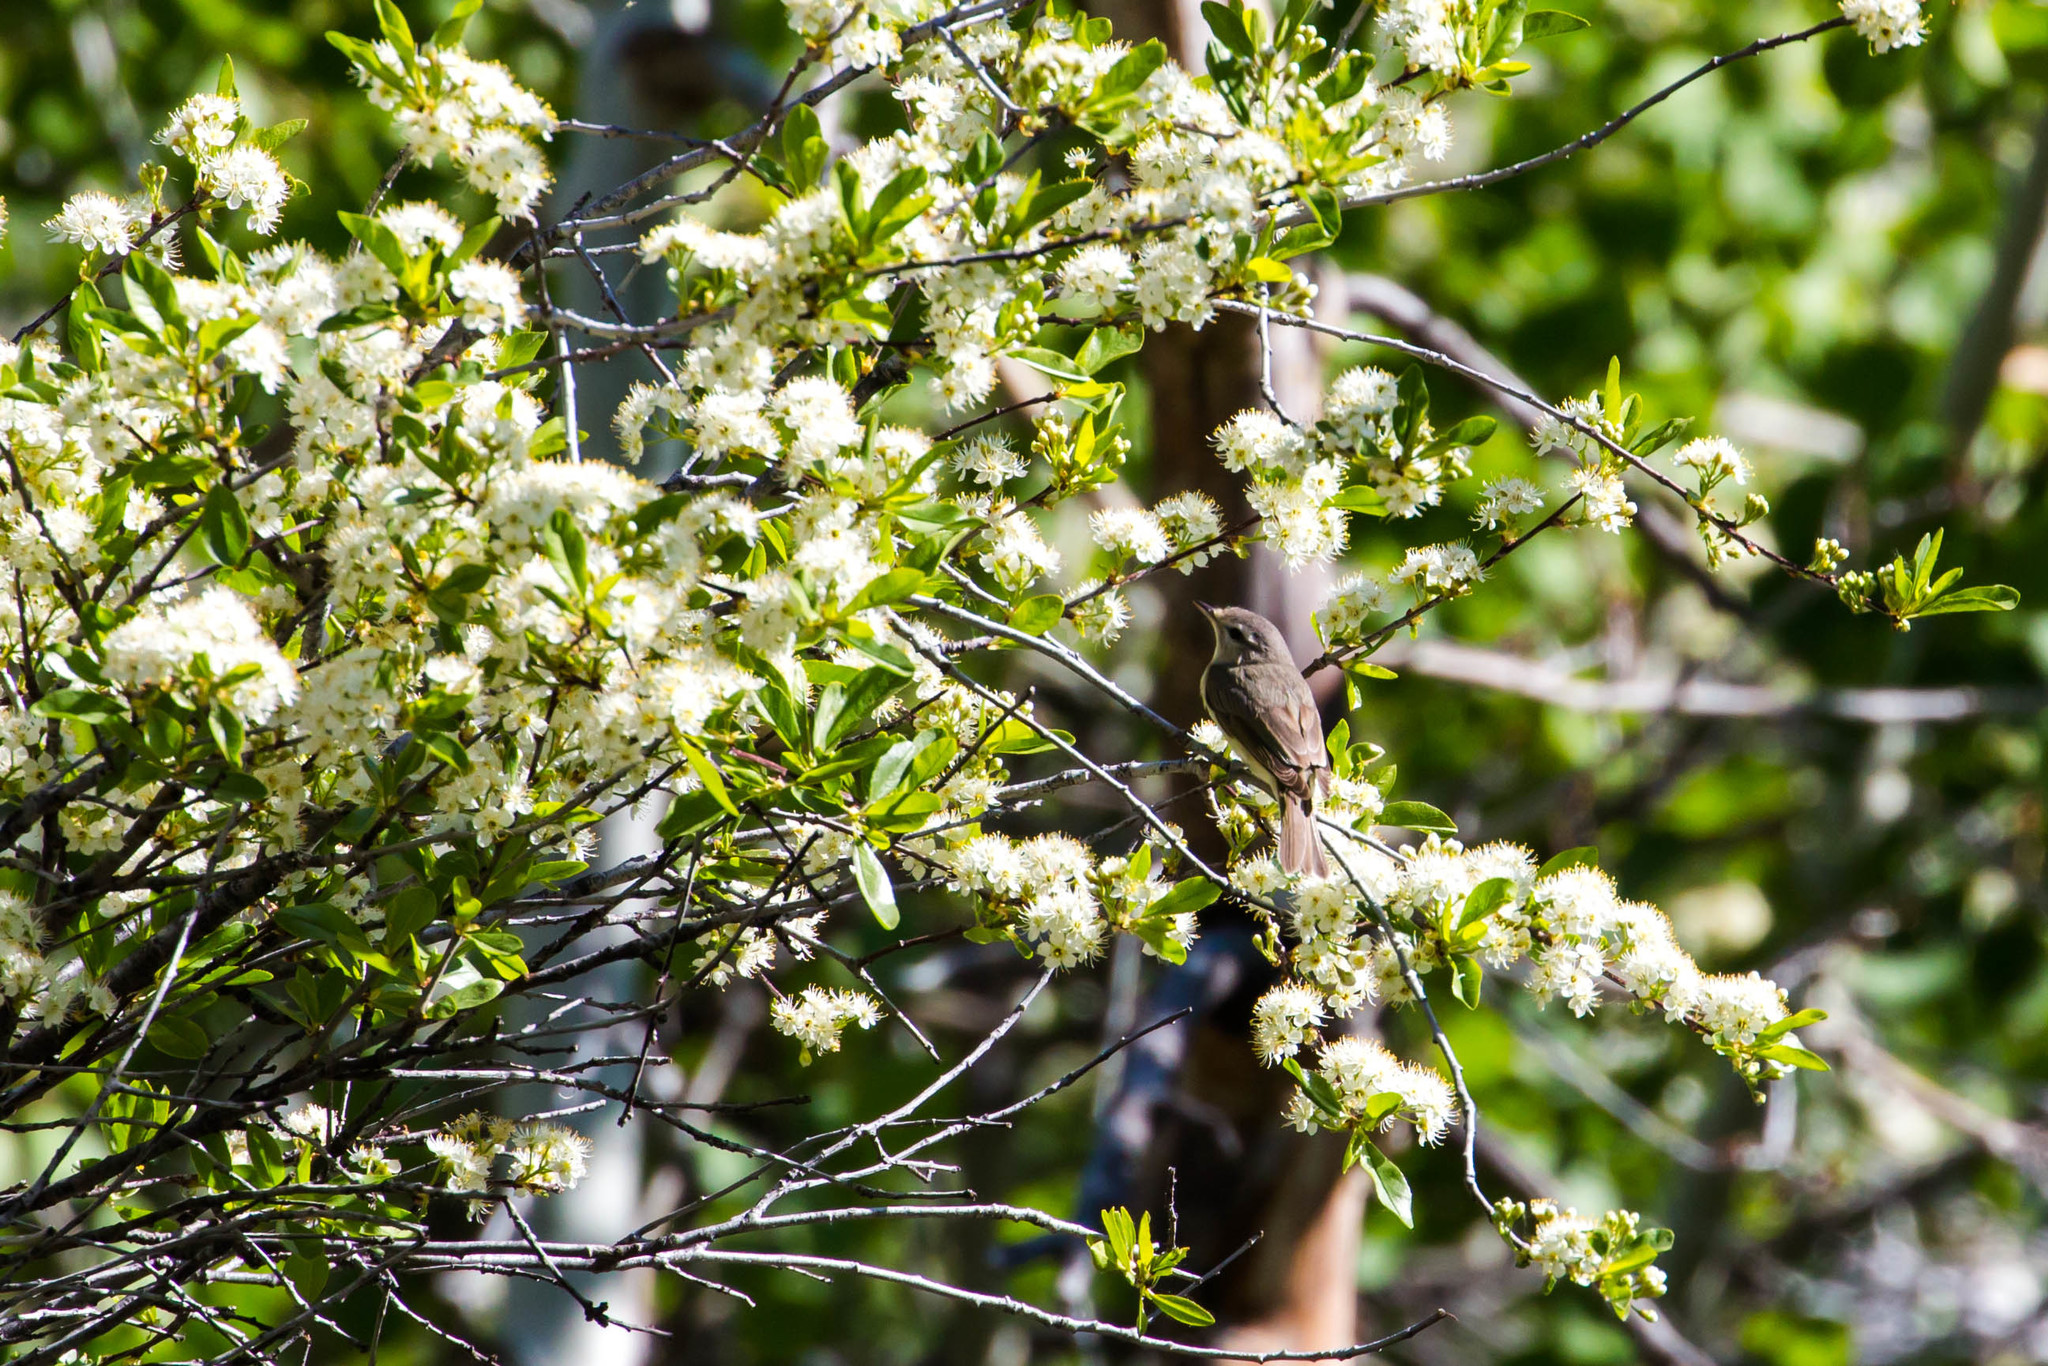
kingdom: Animalia
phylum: Chordata
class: Aves
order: Passeriformes
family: Vireonidae
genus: Vireo
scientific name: Vireo gilvus
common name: Warbling vireo
